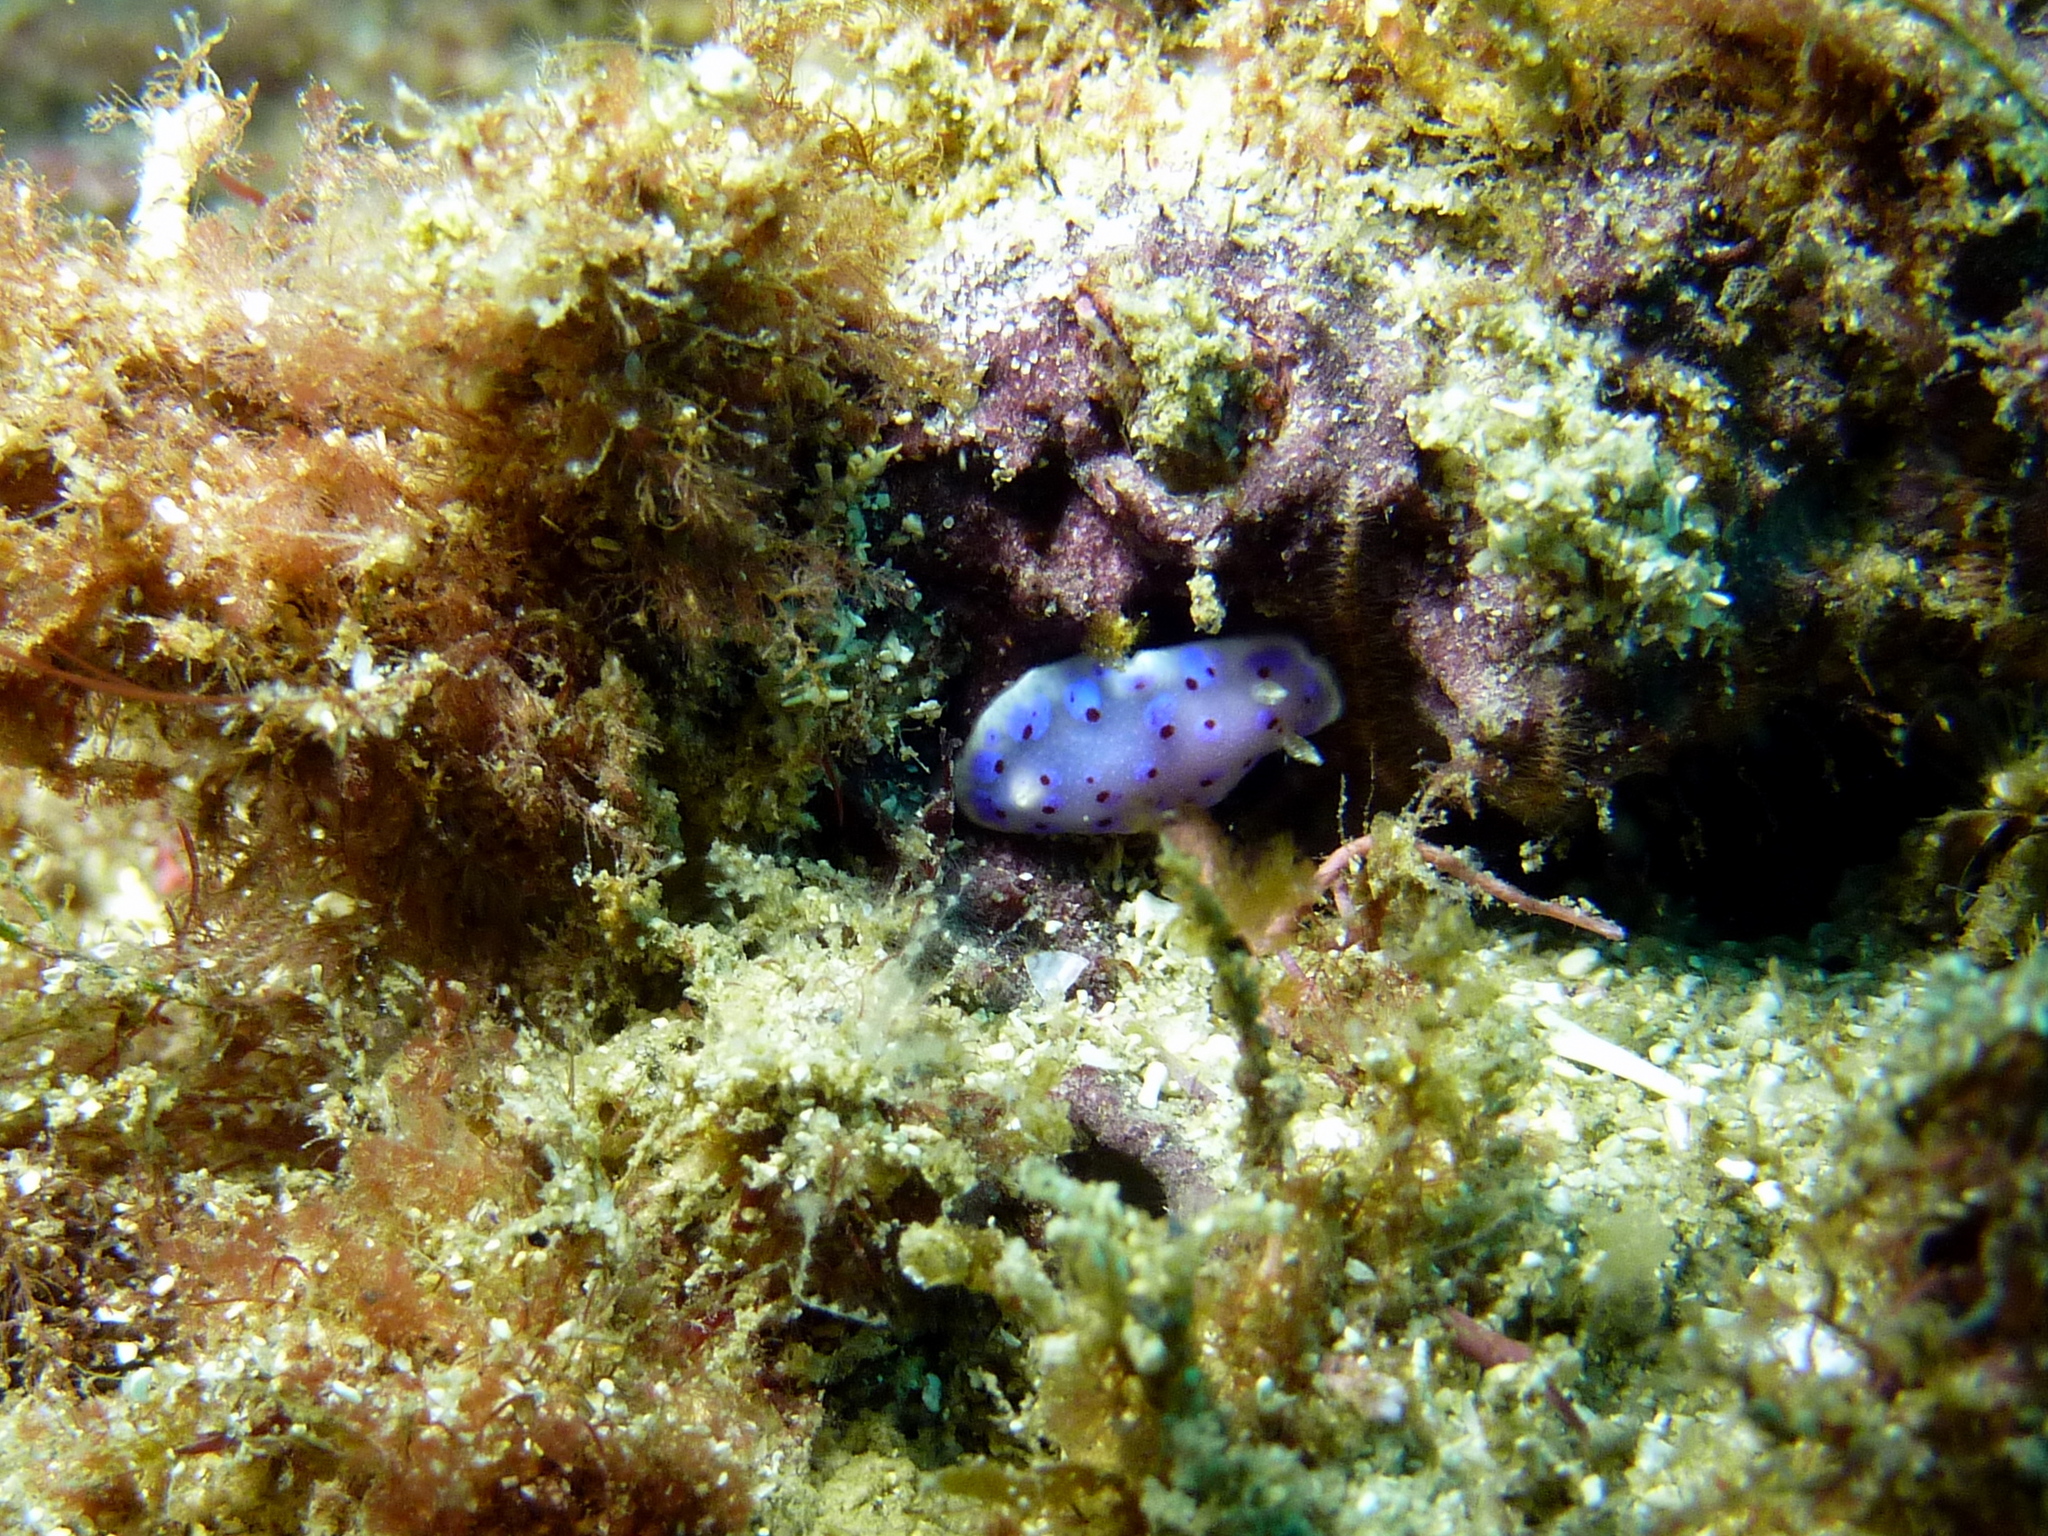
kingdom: Animalia
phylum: Mollusca
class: Gastropoda
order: Nudibranchia
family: Chromodorididae
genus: Goniobranchus
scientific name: Goniobranchus thompsoni
